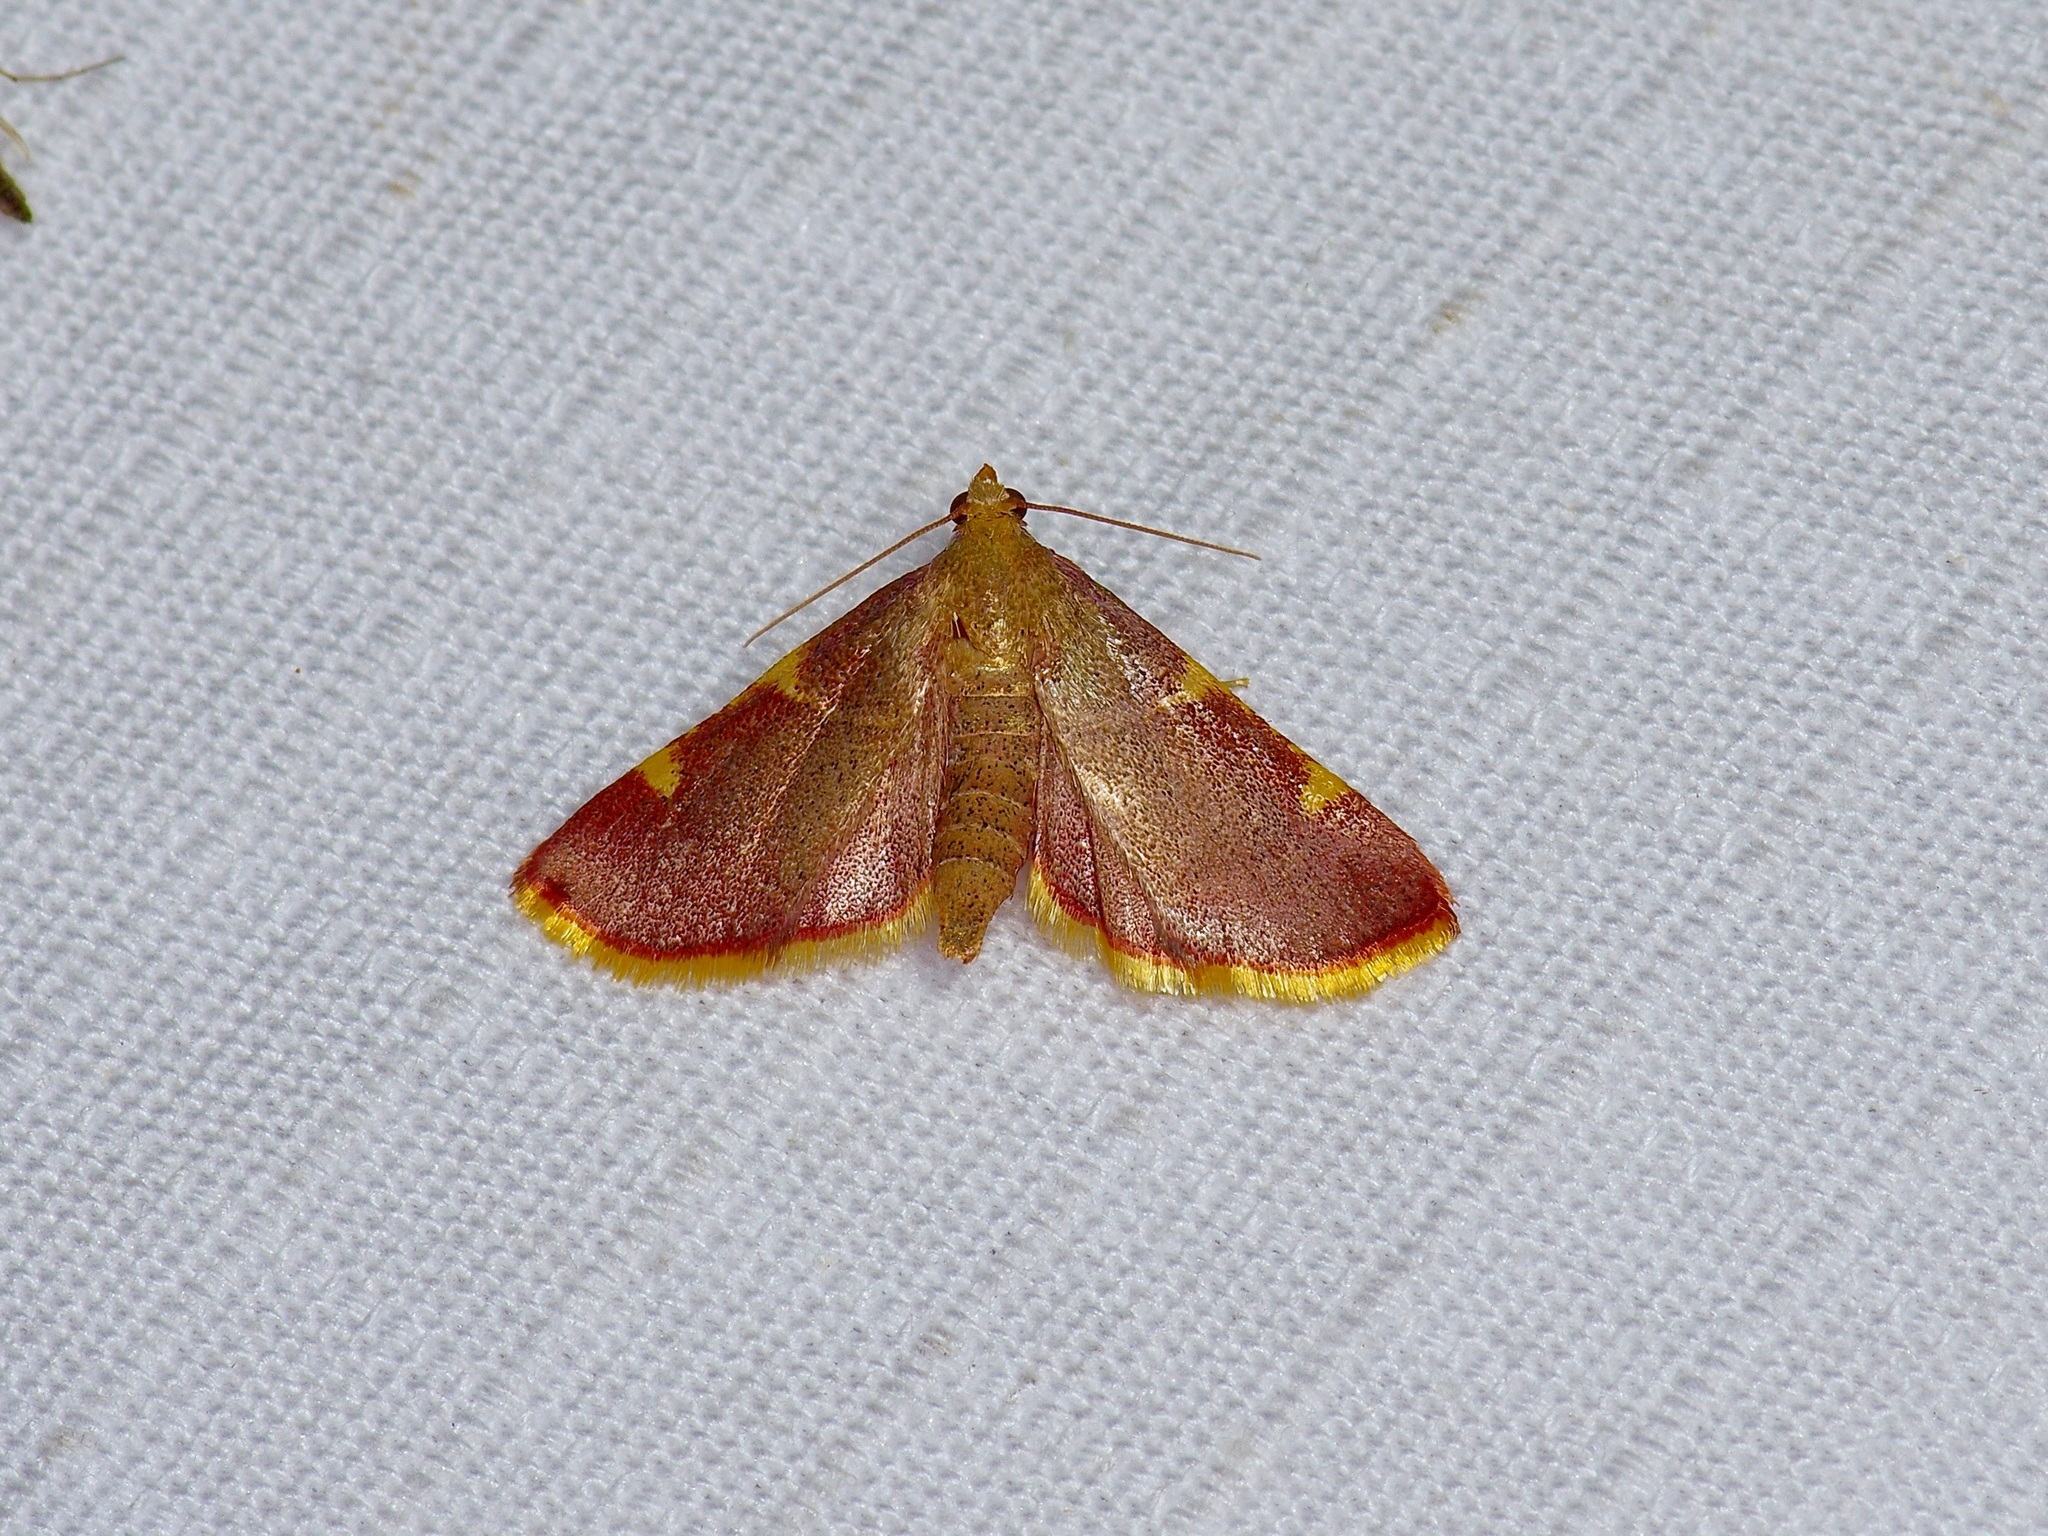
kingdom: Animalia
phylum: Arthropoda
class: Insecta
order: Lepidoptera
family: Pyralidae
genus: Hypsopygia
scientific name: Hypsopygia olinalis
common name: Yellow-fringed dolichomia moth
